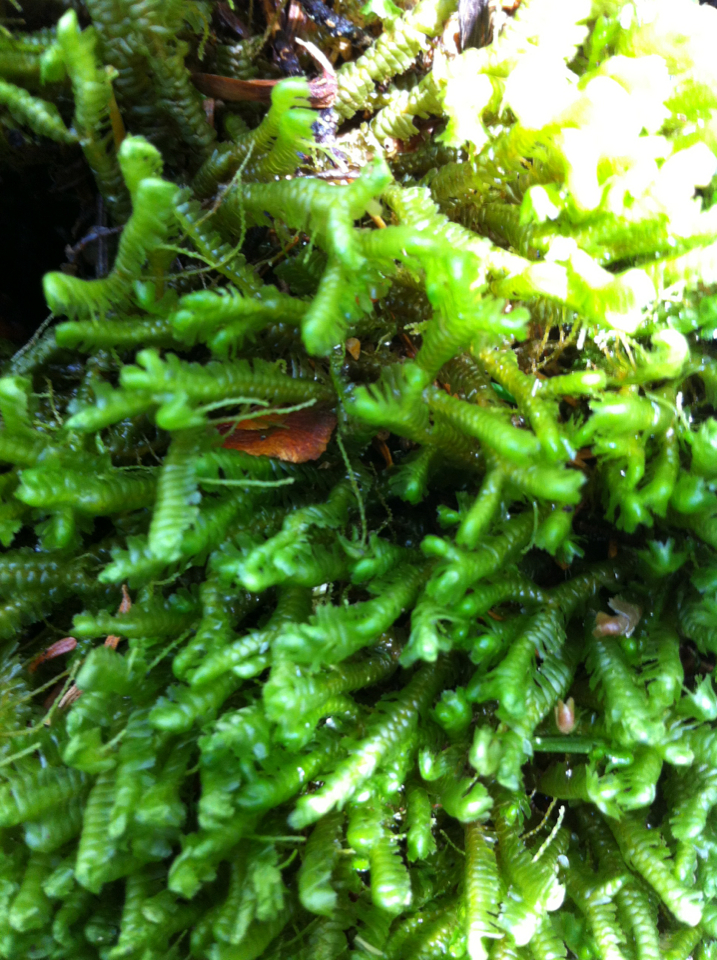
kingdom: Plantae
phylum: Marchantiophyta
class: Jungermanniopsida
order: Jungermanniales
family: Lepidoziaceae
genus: Bazzania
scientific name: Bazzania trilobata
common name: Three-lobed whipwort
